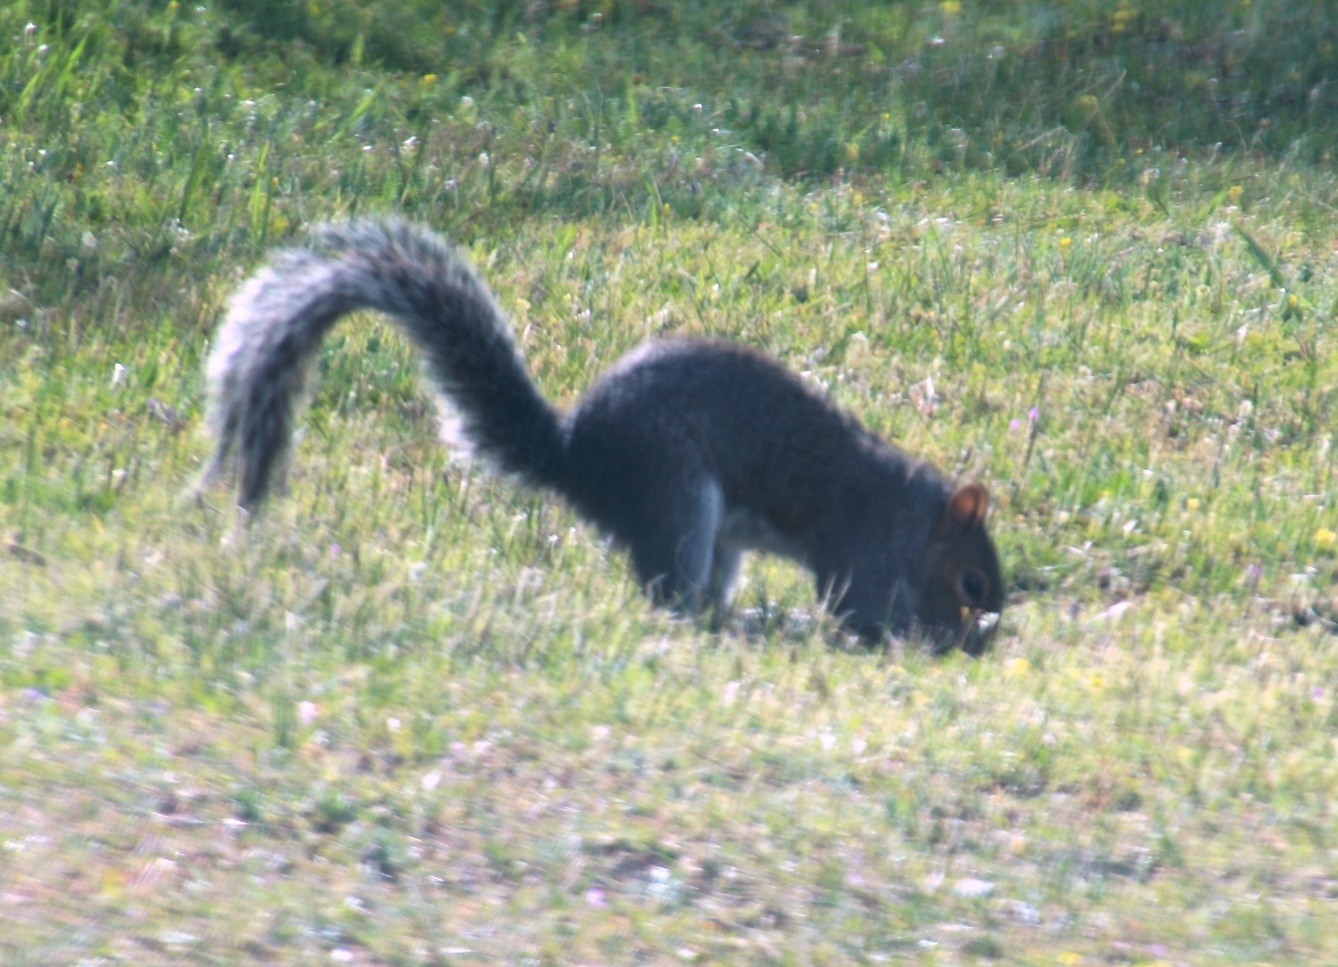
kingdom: Animalia
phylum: Chordata
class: Mammalia
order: Rodentia
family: Sciuridae
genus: Sciurus
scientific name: Sciurus carolinensis
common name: Eastern gray squirrel
